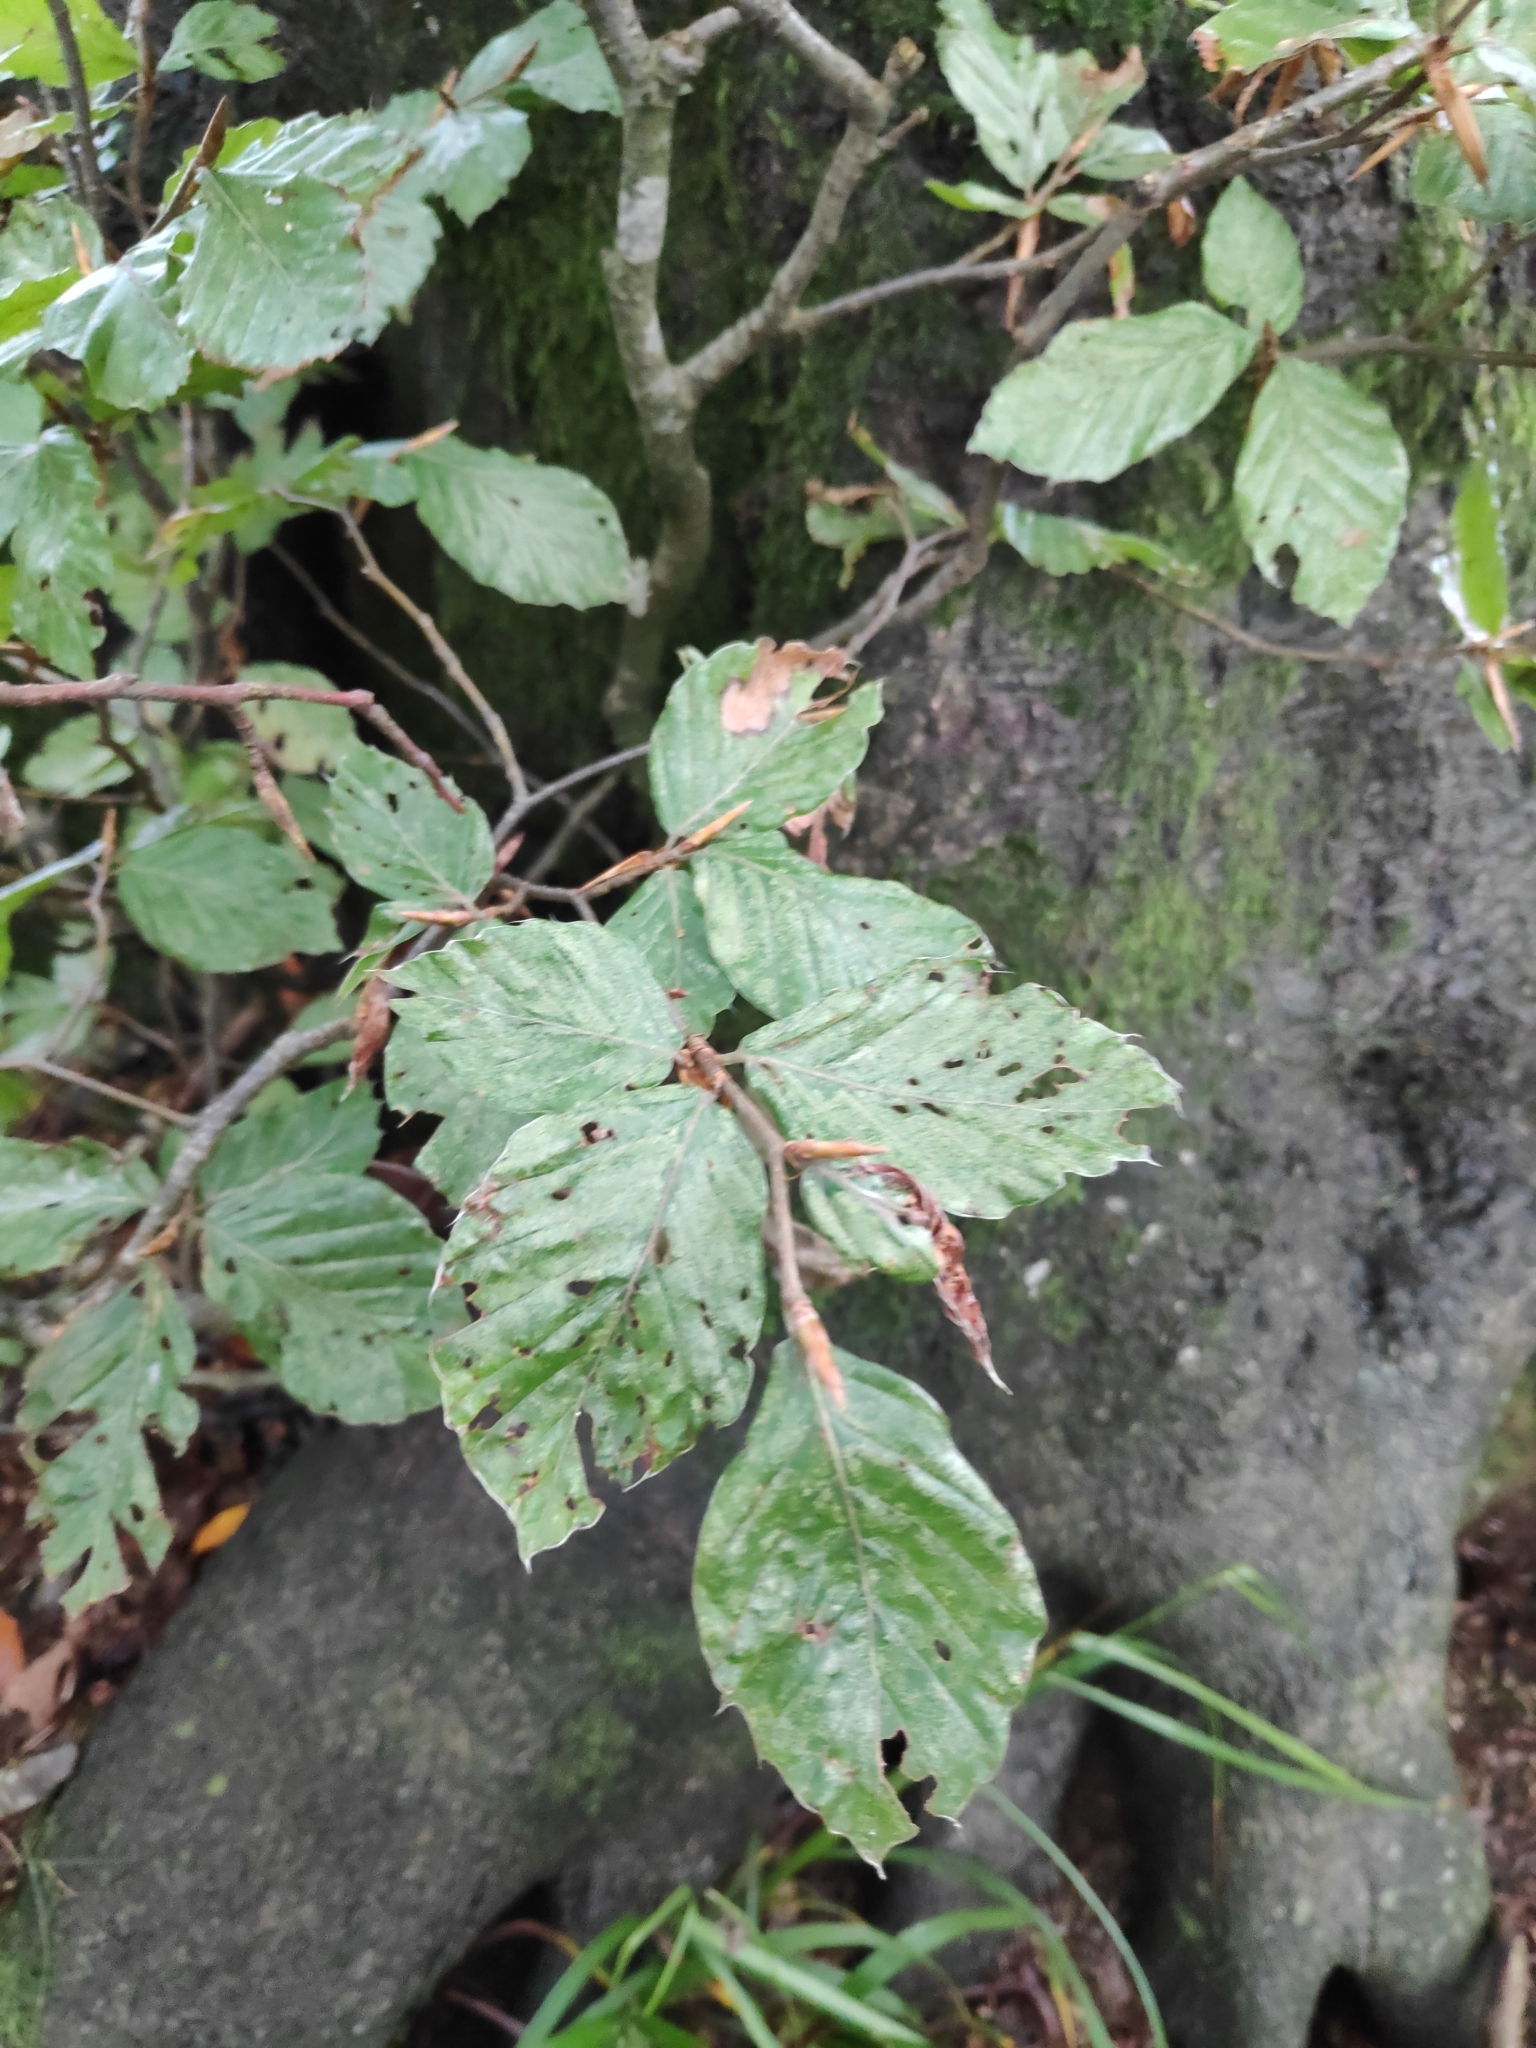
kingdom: Plantae
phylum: Tracheophyta
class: Magnoliopsida
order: Fagales
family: Fagaceae
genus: Fagus
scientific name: Fagus sylvatica
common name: Beech
